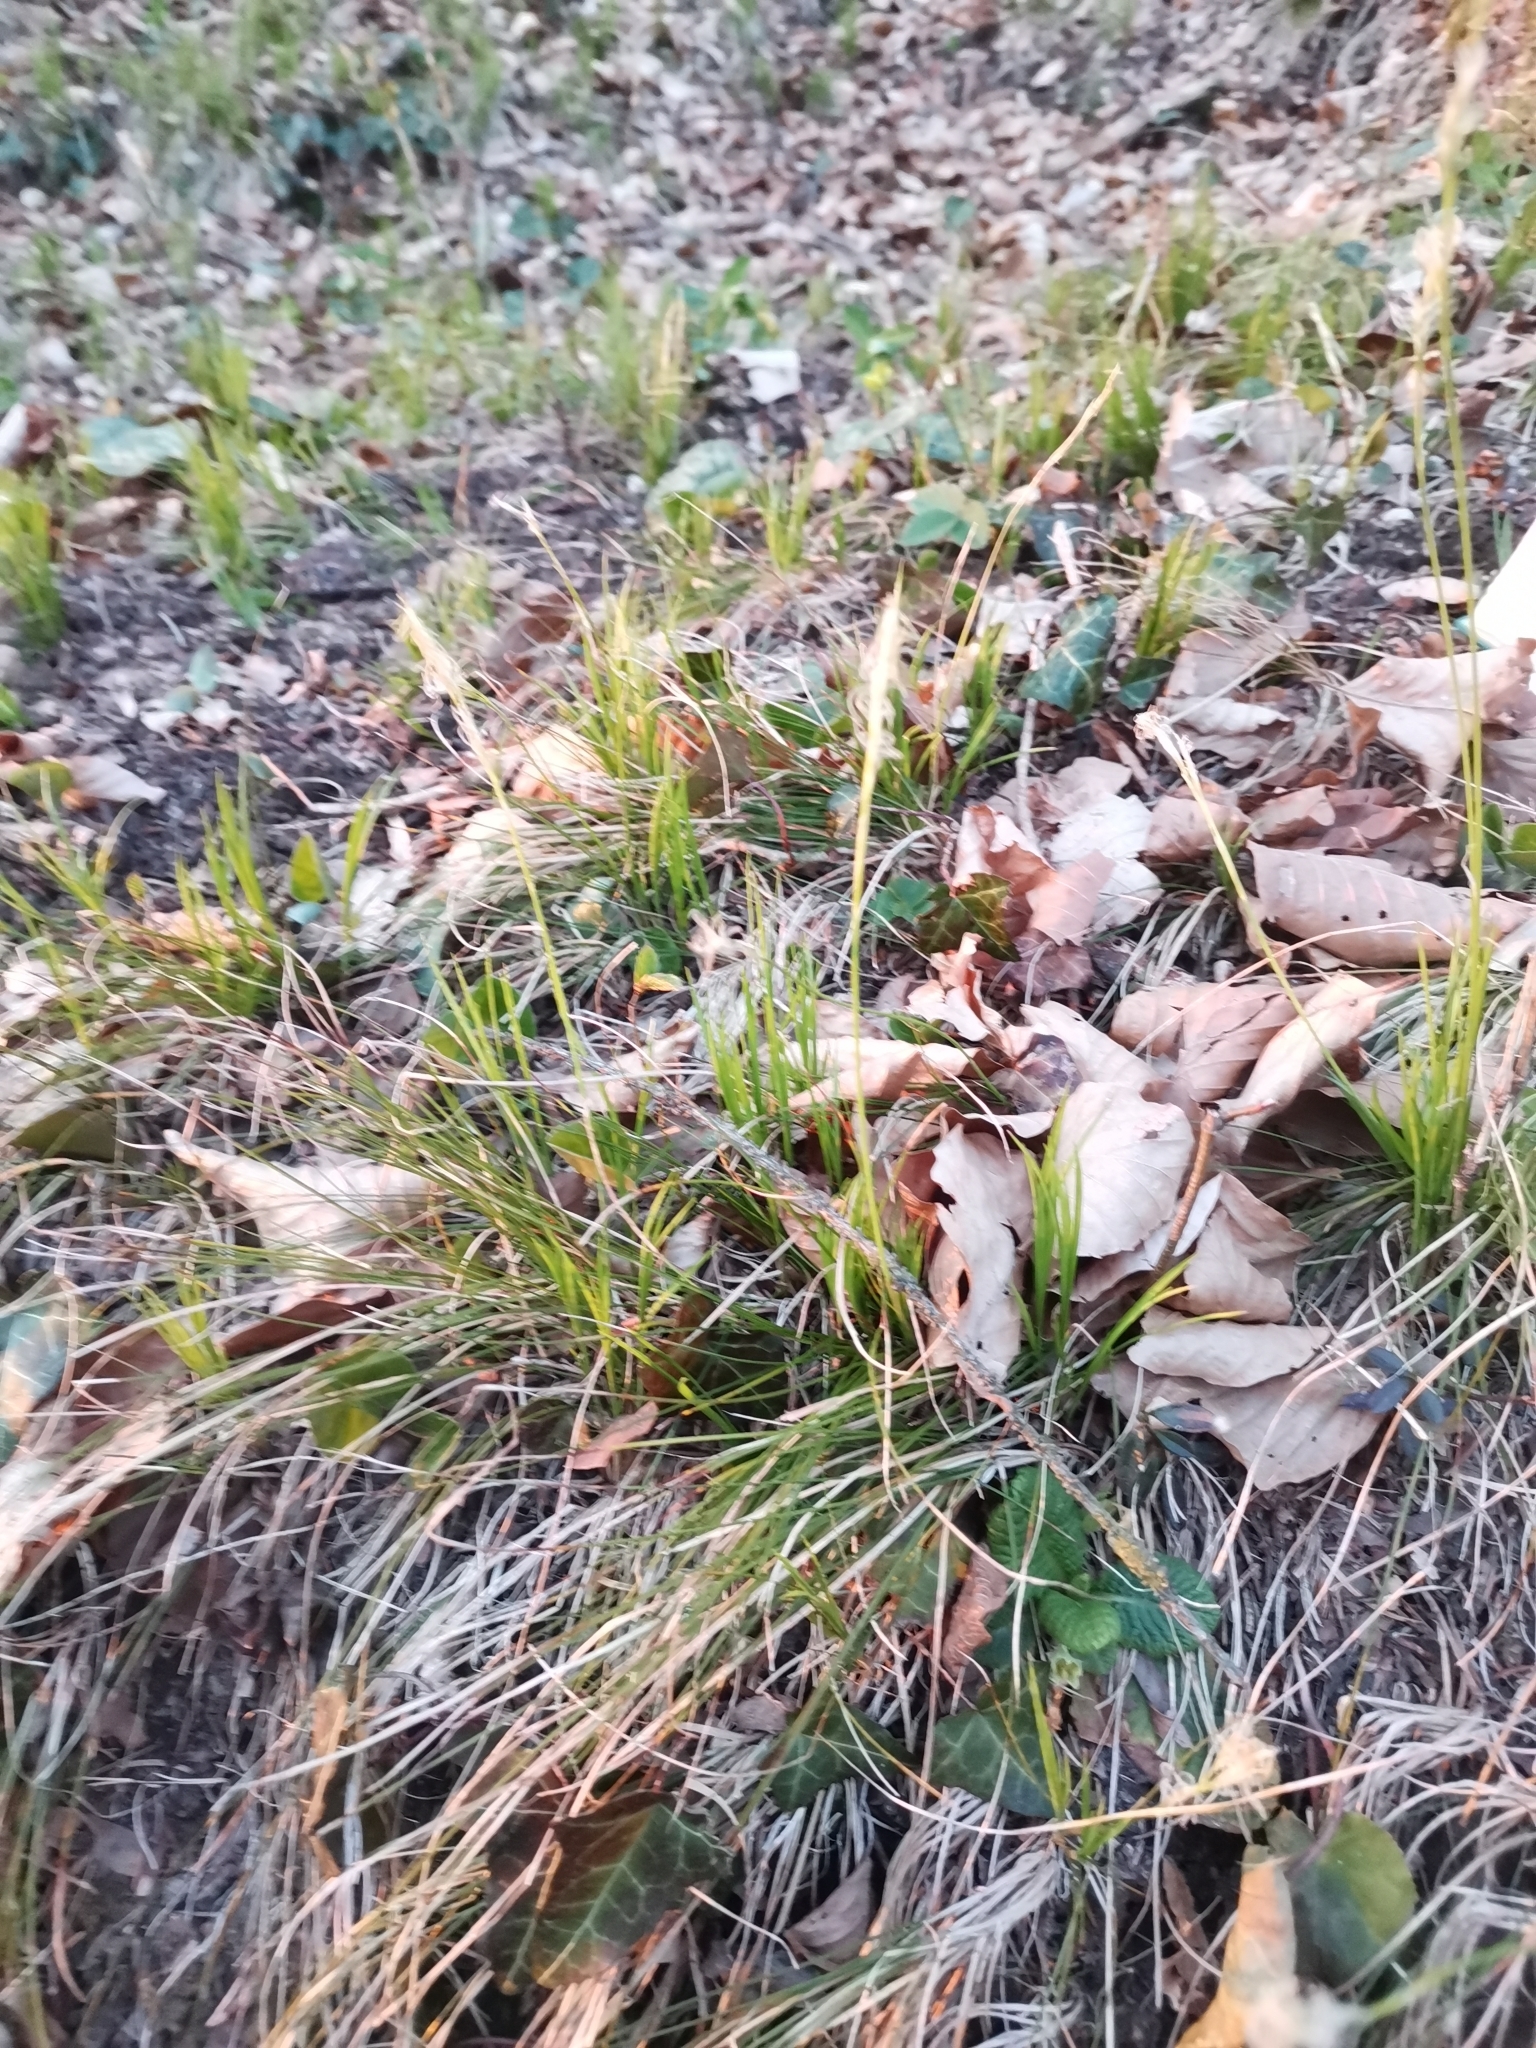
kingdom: Plantae
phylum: Tracheophyta
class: Liliopsida
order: Poales
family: Cyperaceae
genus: Carex
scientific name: Carex alba
